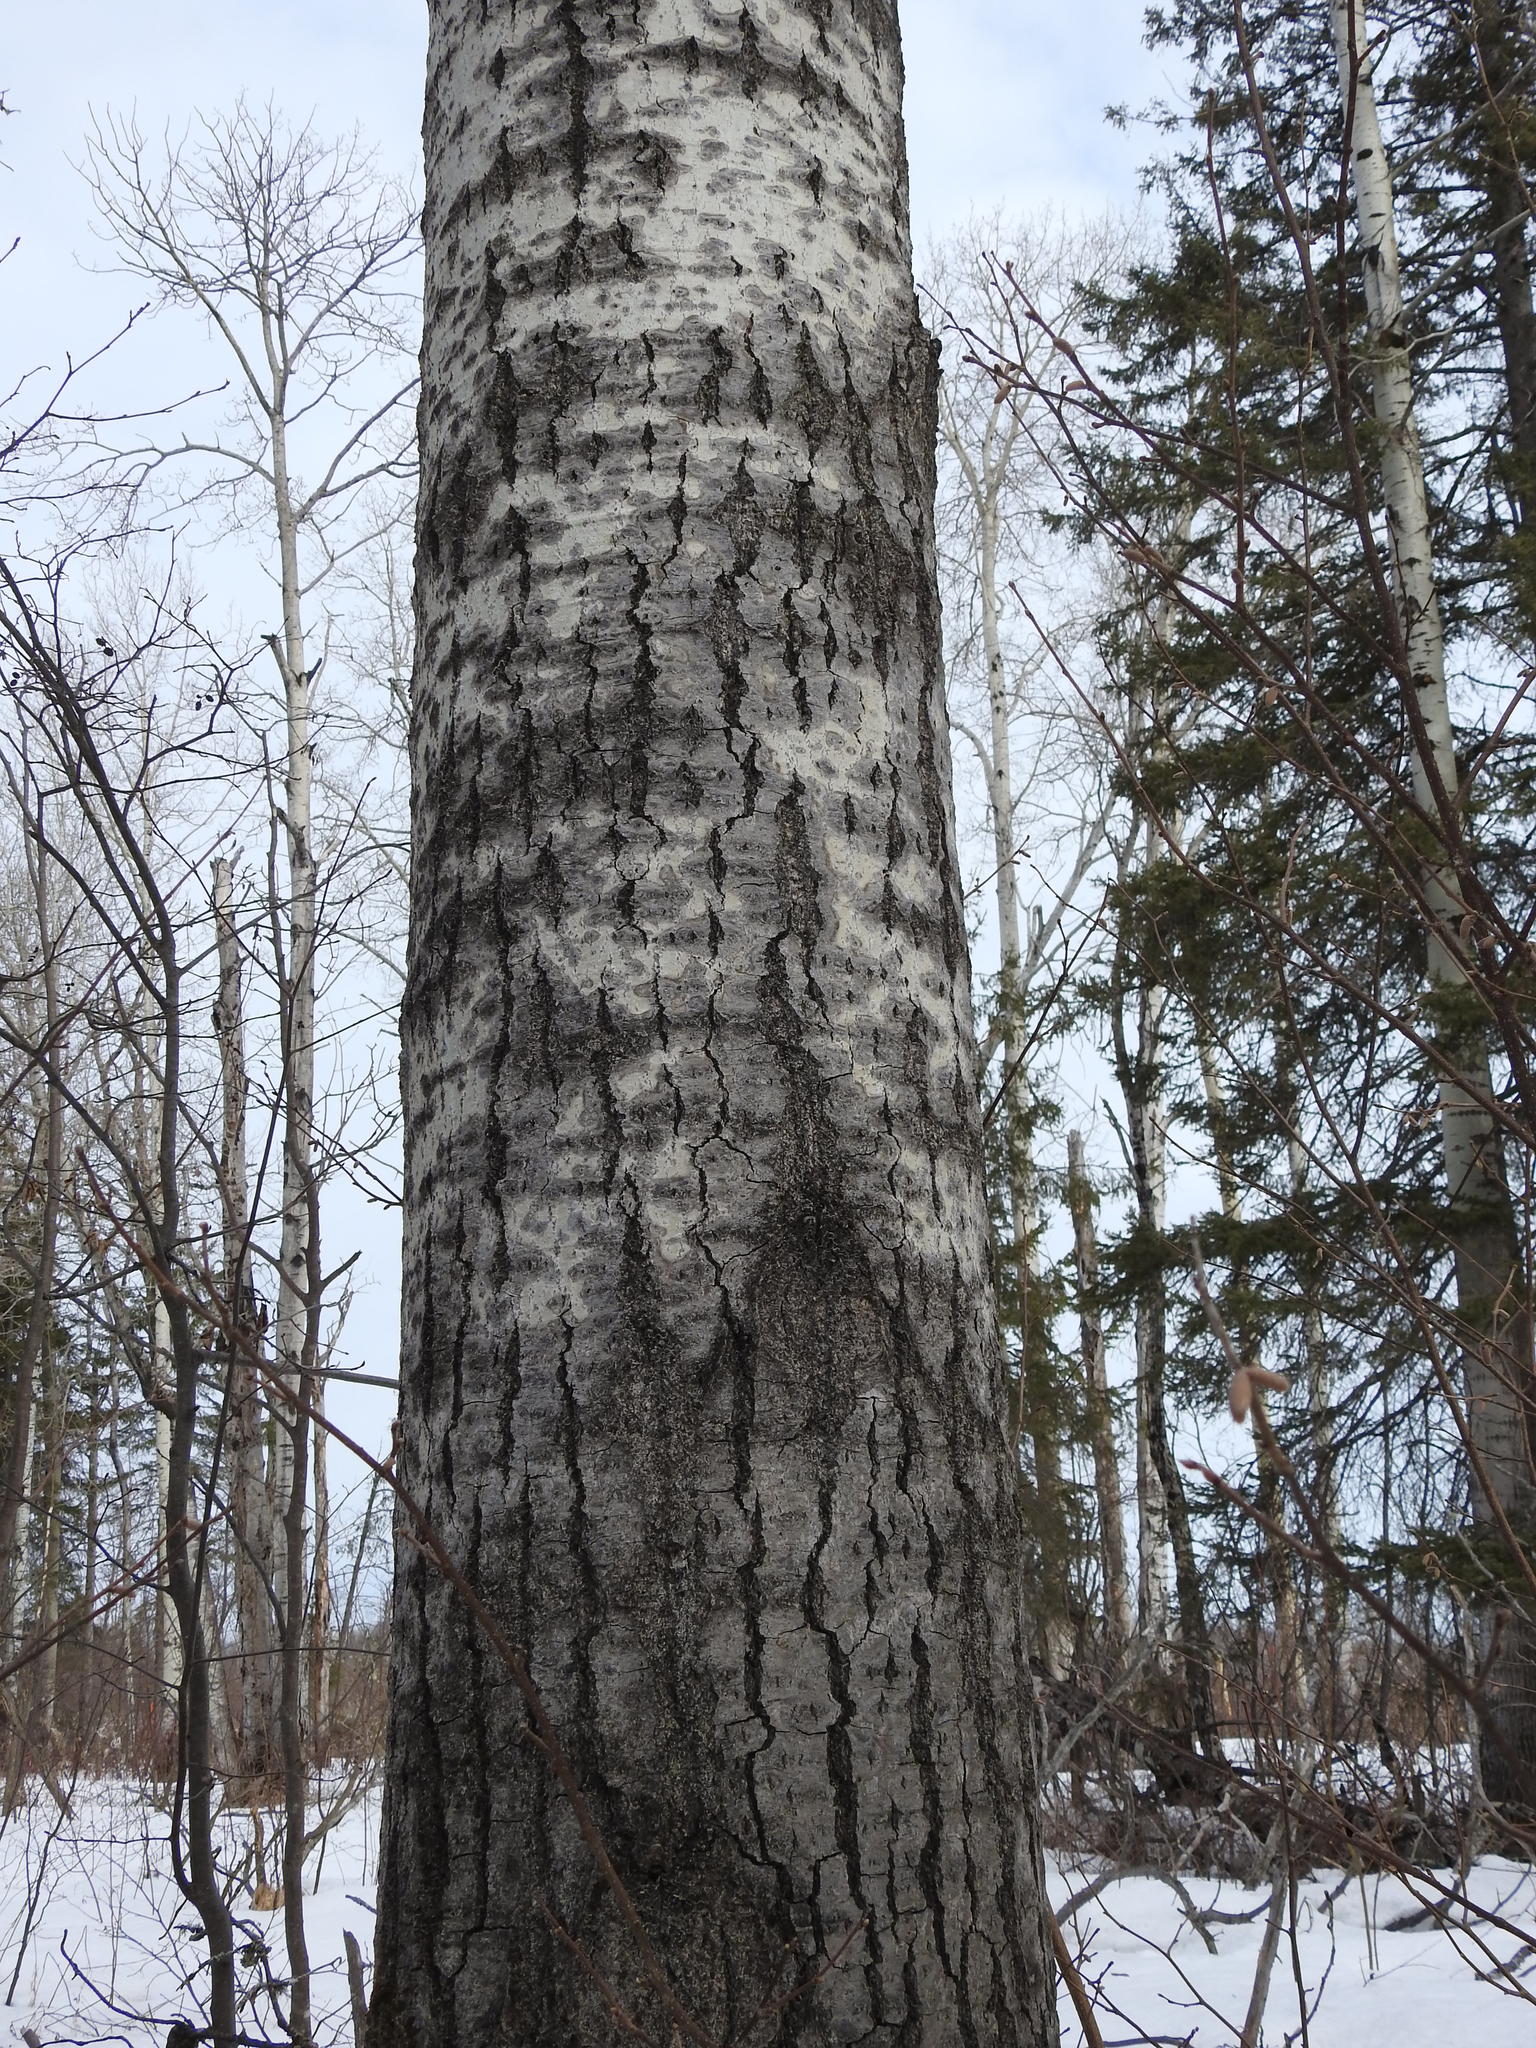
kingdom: Plantae
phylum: Tracheophyta
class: Magnoliopsida
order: Malpighiales
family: Salicaceae
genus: Populus
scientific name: Populus tremuloides
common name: Quaking aspen
